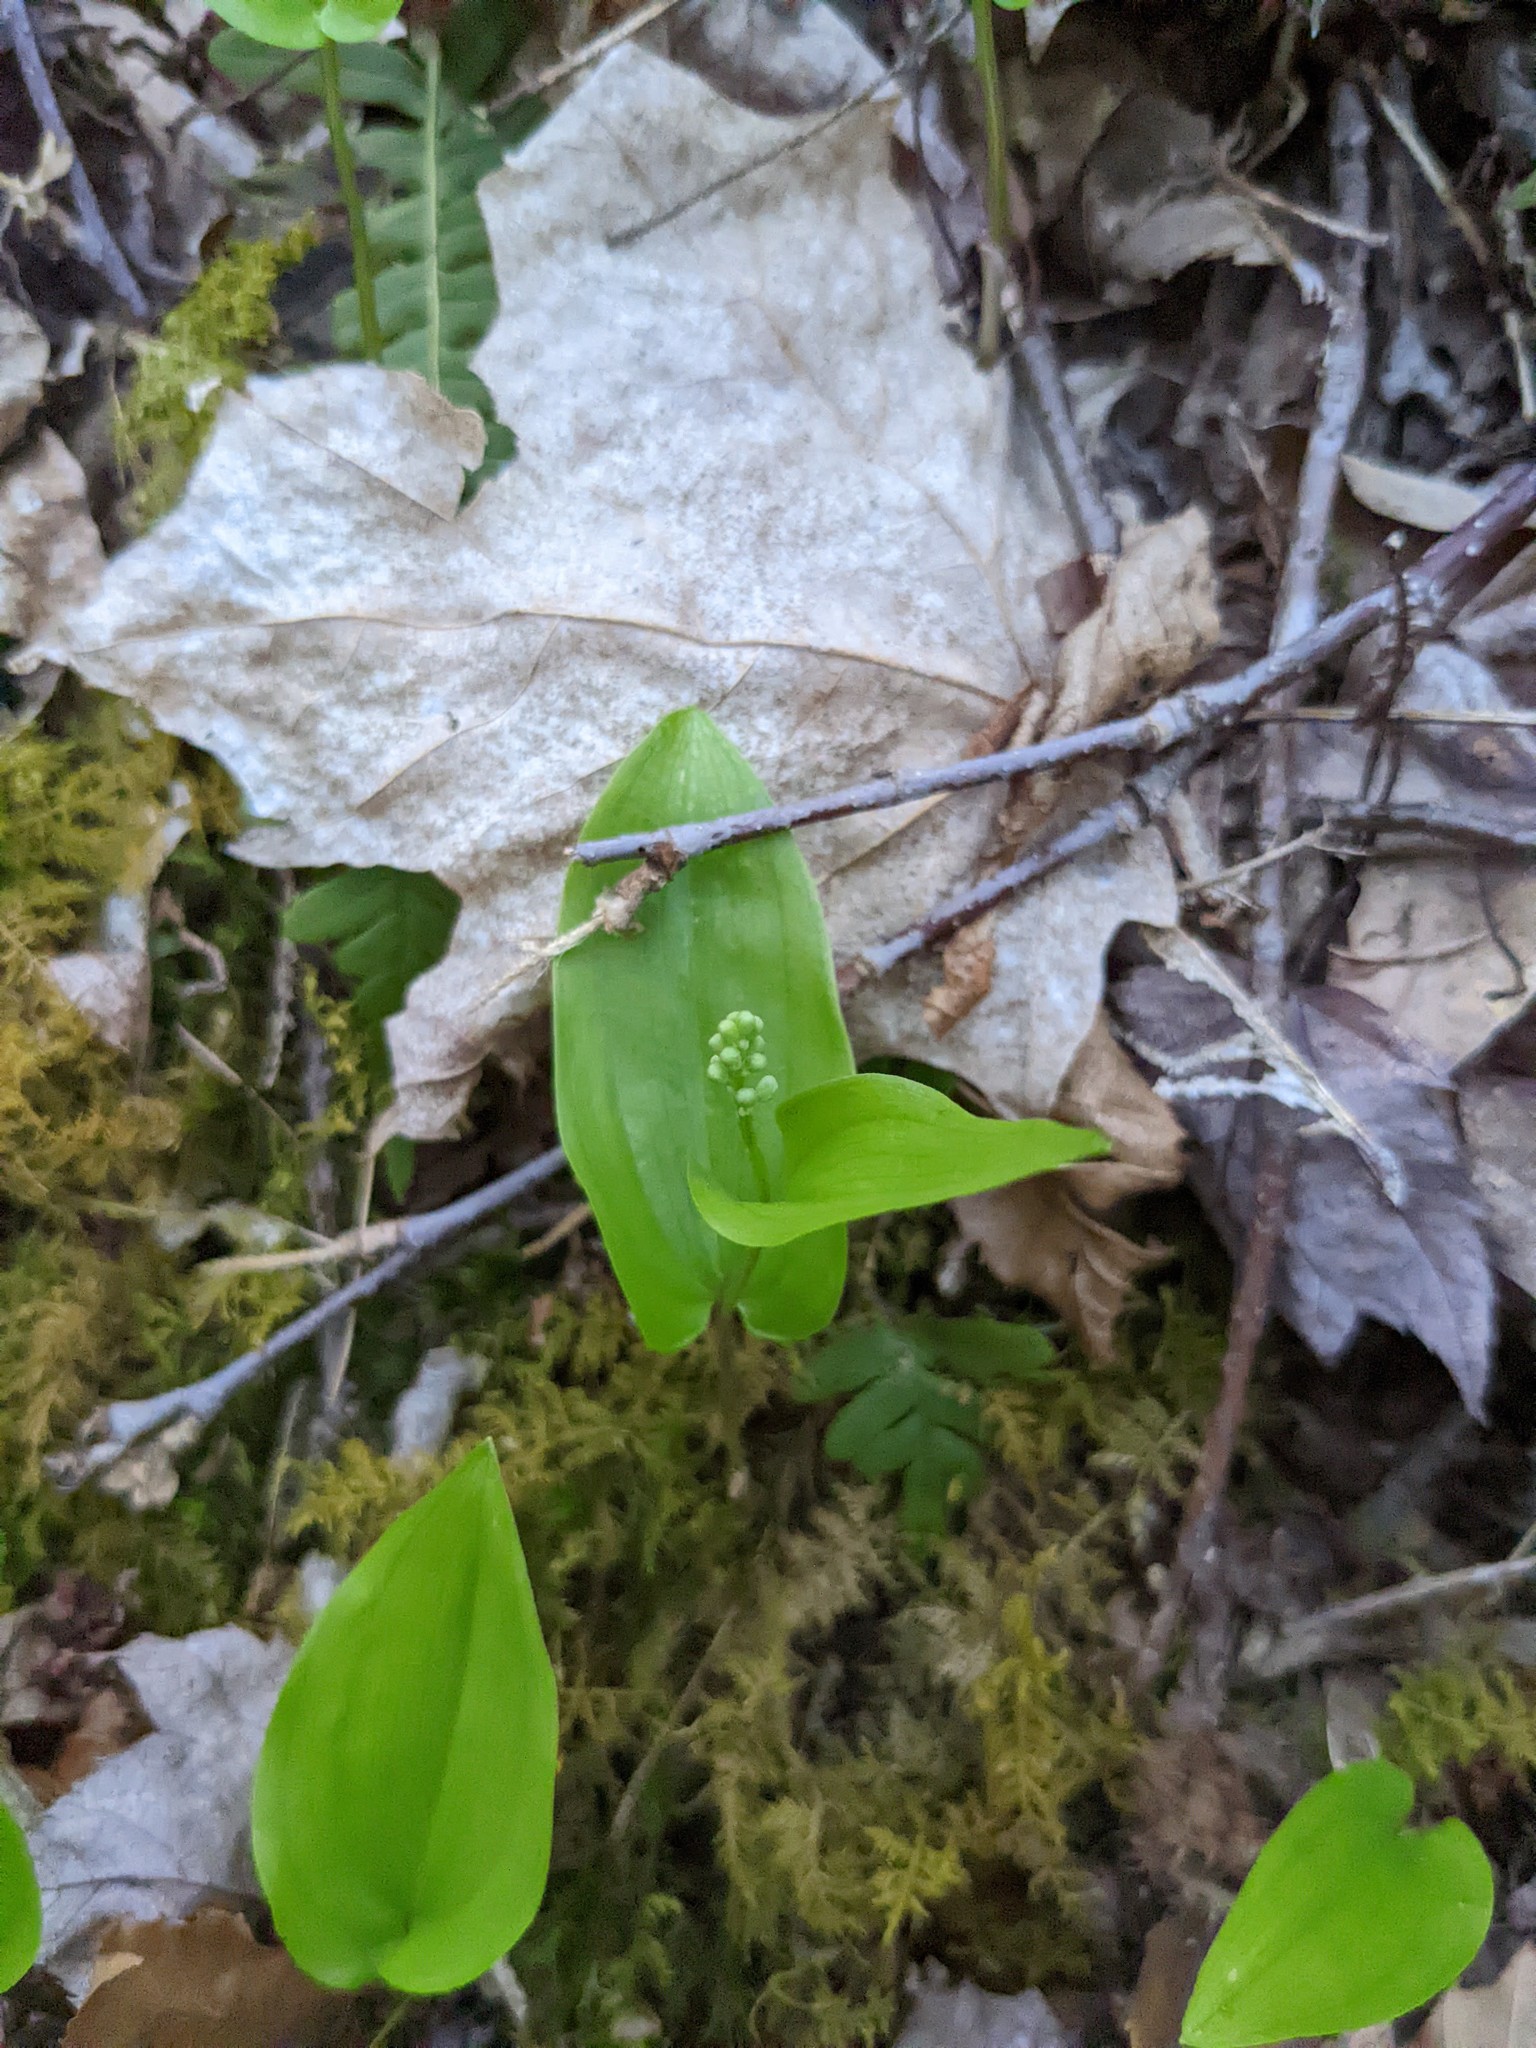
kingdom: Plantae
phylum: Tracheophyta
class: Liliopsida
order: Asparagales
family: Asparagaceae
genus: Maianthemum
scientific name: Maianthemum canadense
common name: False lily-of-the-valley
